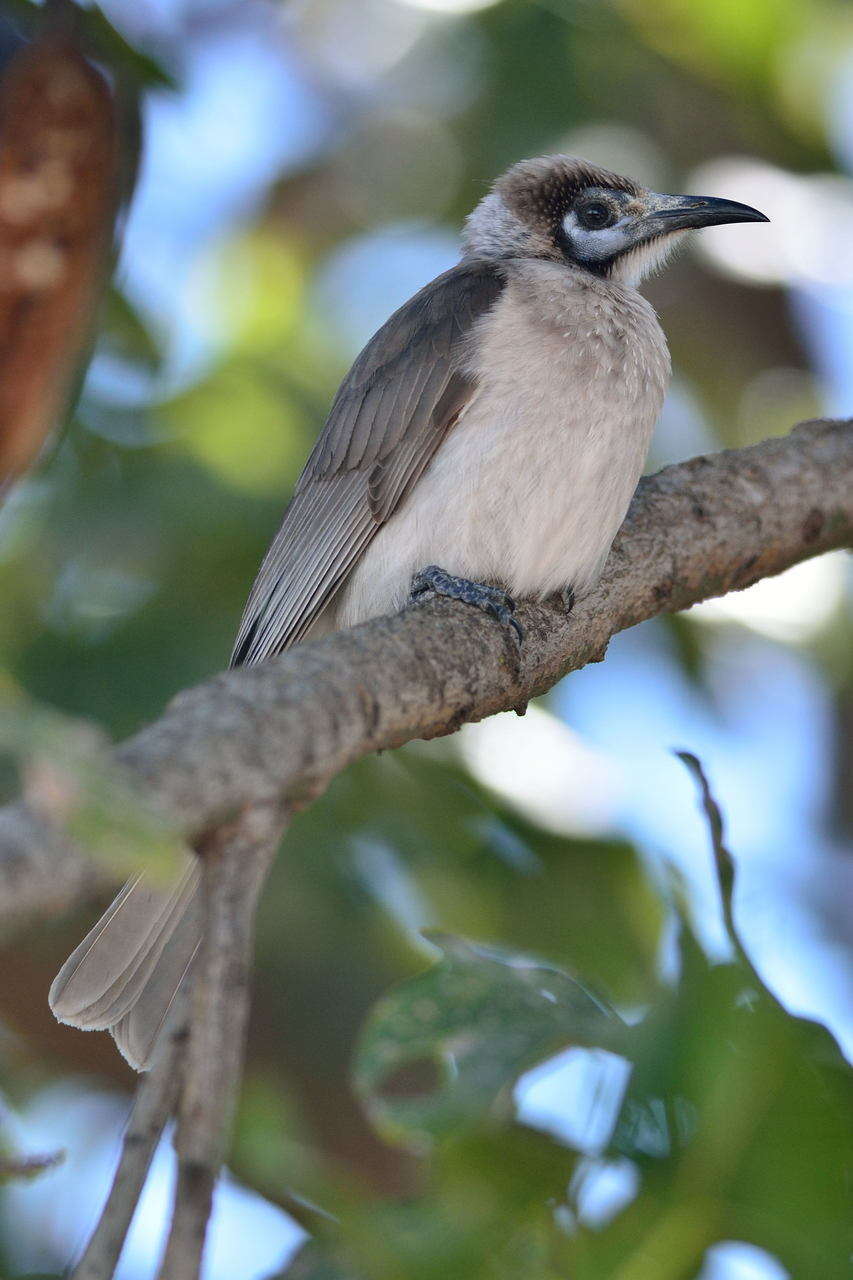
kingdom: Animalia
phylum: Chordata
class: Aves
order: Passeriformes
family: Meliphagidae
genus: Philemon
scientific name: Philemon citreogularis
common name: Little friarbird
